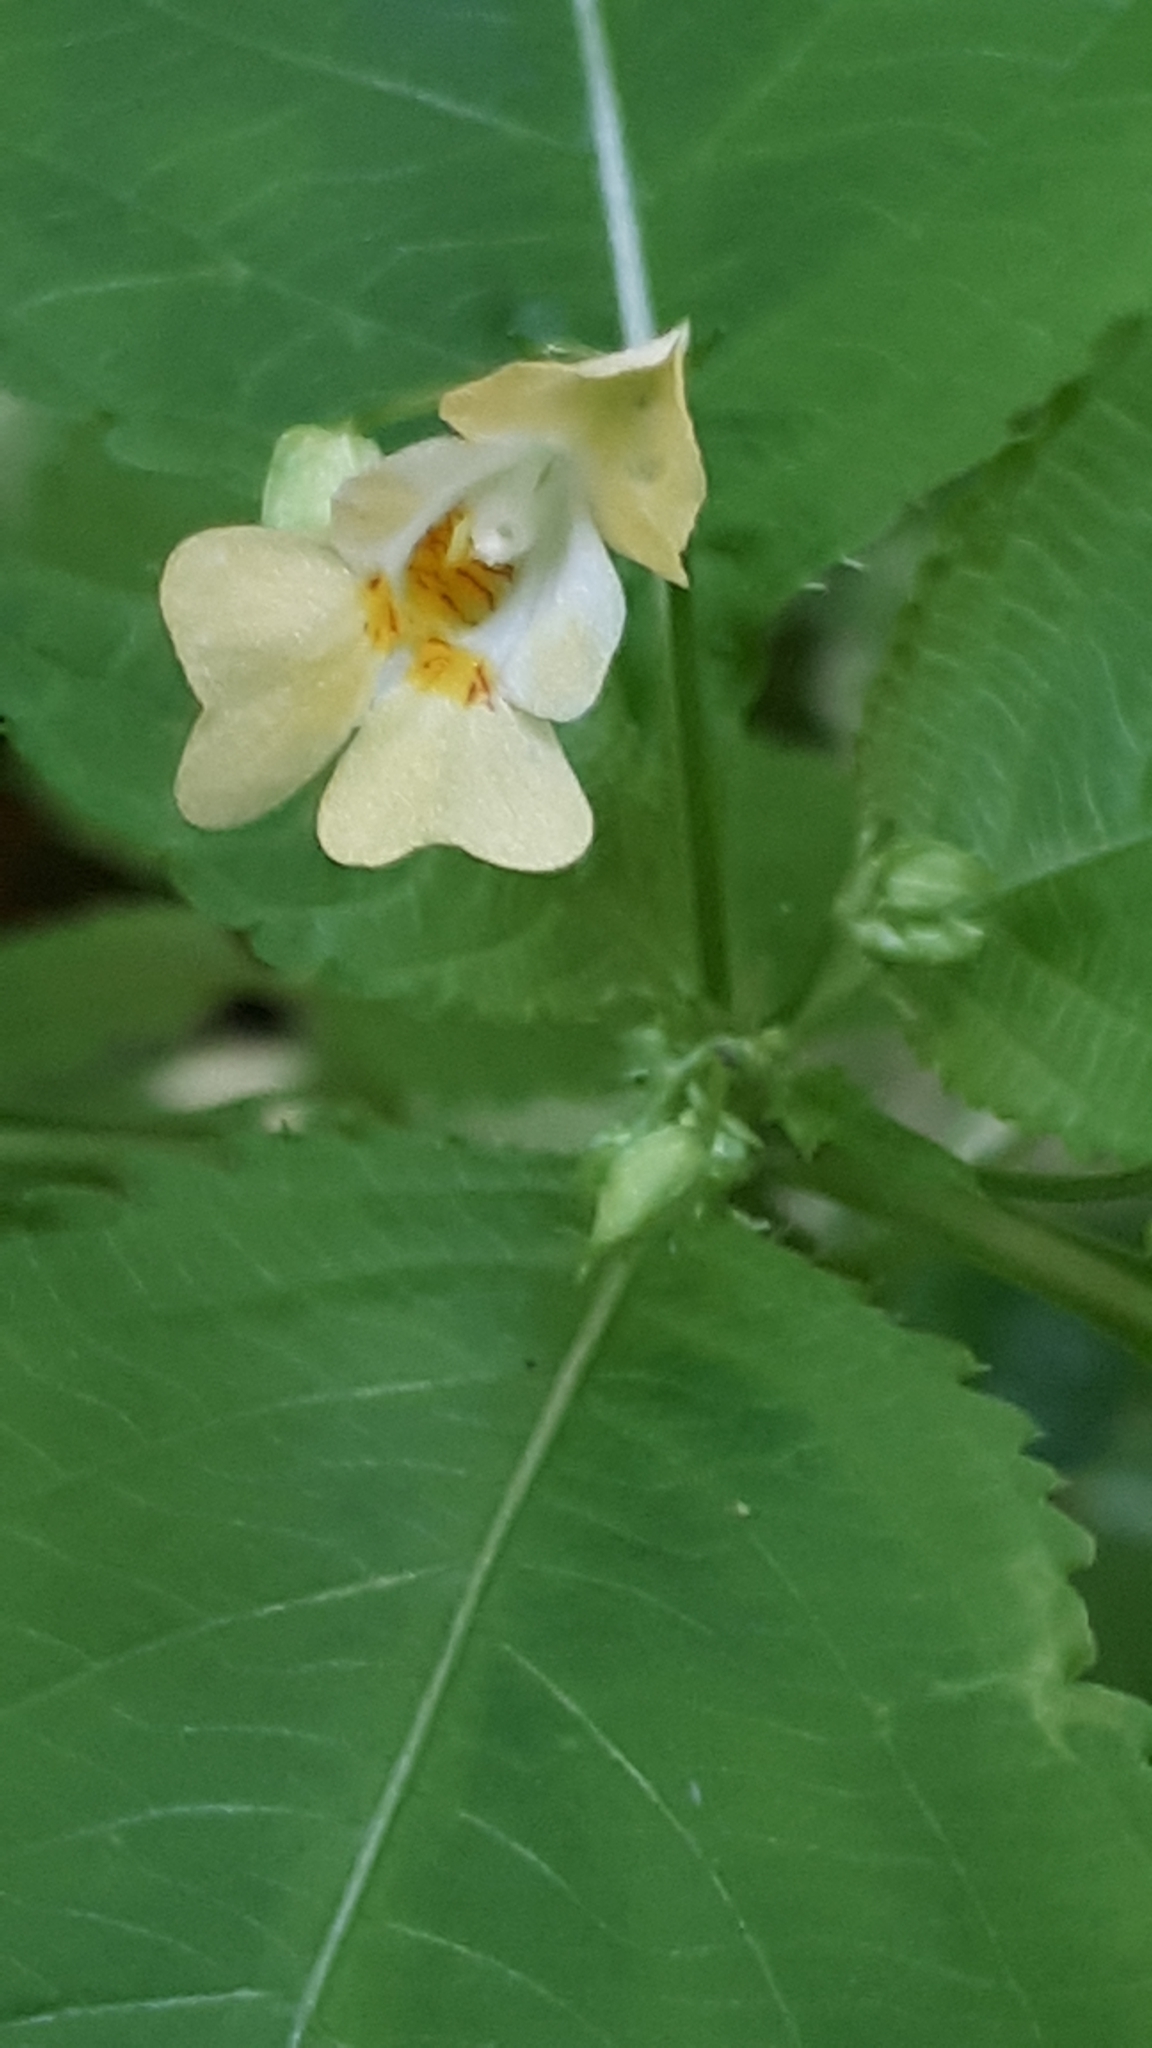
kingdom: Plantae
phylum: Tracheophyta
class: Magnoliopsida
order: Ericales
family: Balsaminaceae
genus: Impatiens
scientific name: Impatiens parviflora
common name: Small balsam
